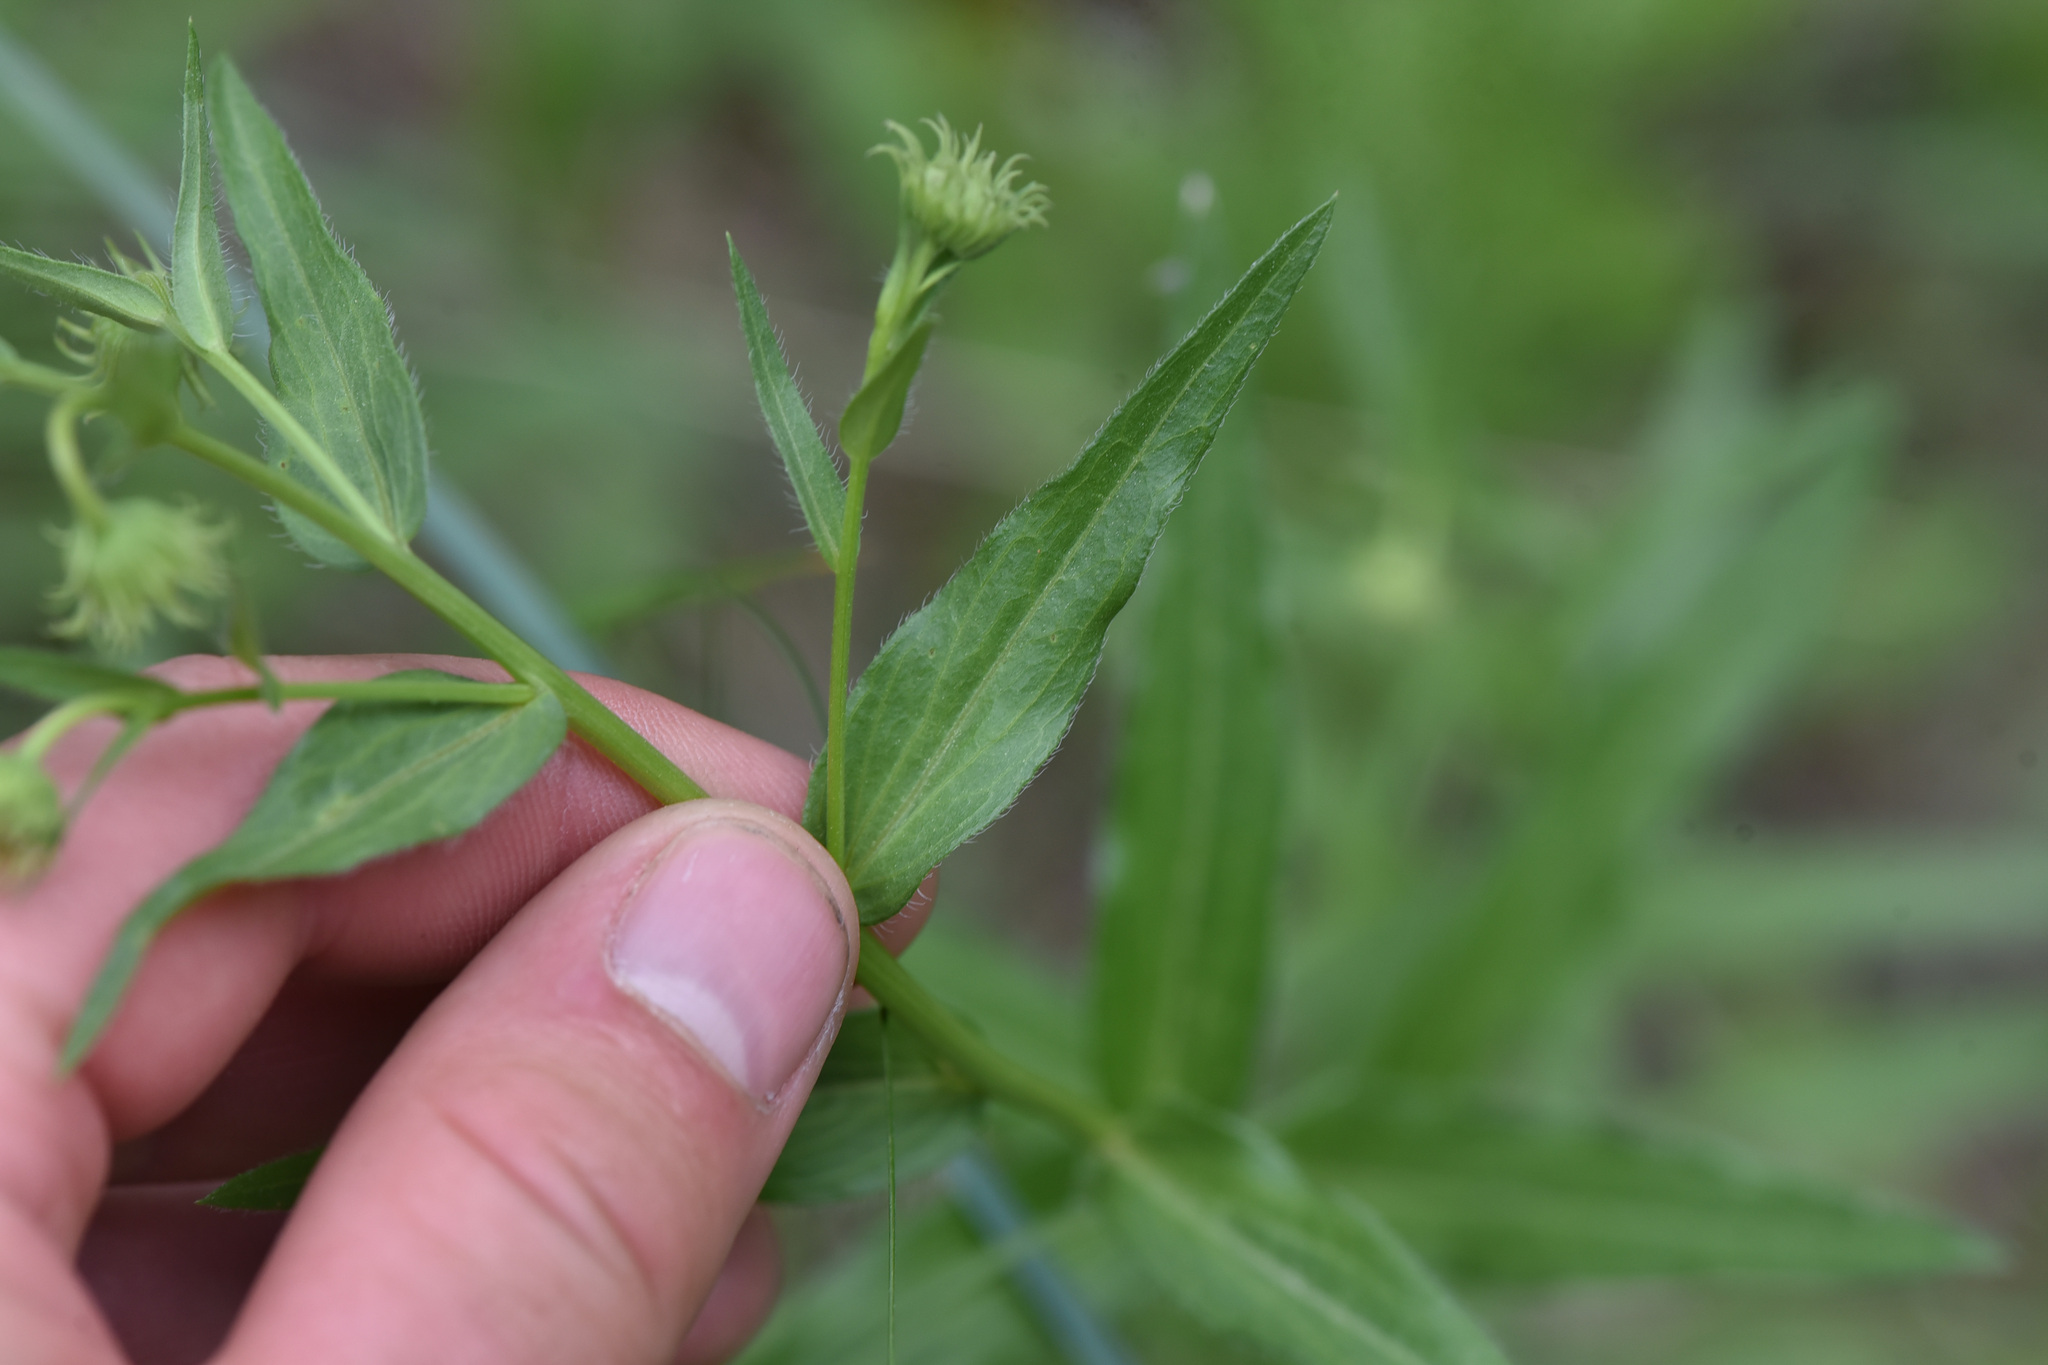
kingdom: Plantae
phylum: Tracheophyta
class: Magnoliopsida
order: Asterales
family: Asteraceae
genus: Erigeron
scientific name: Erigeron speciosus
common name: Aspen fleabane
